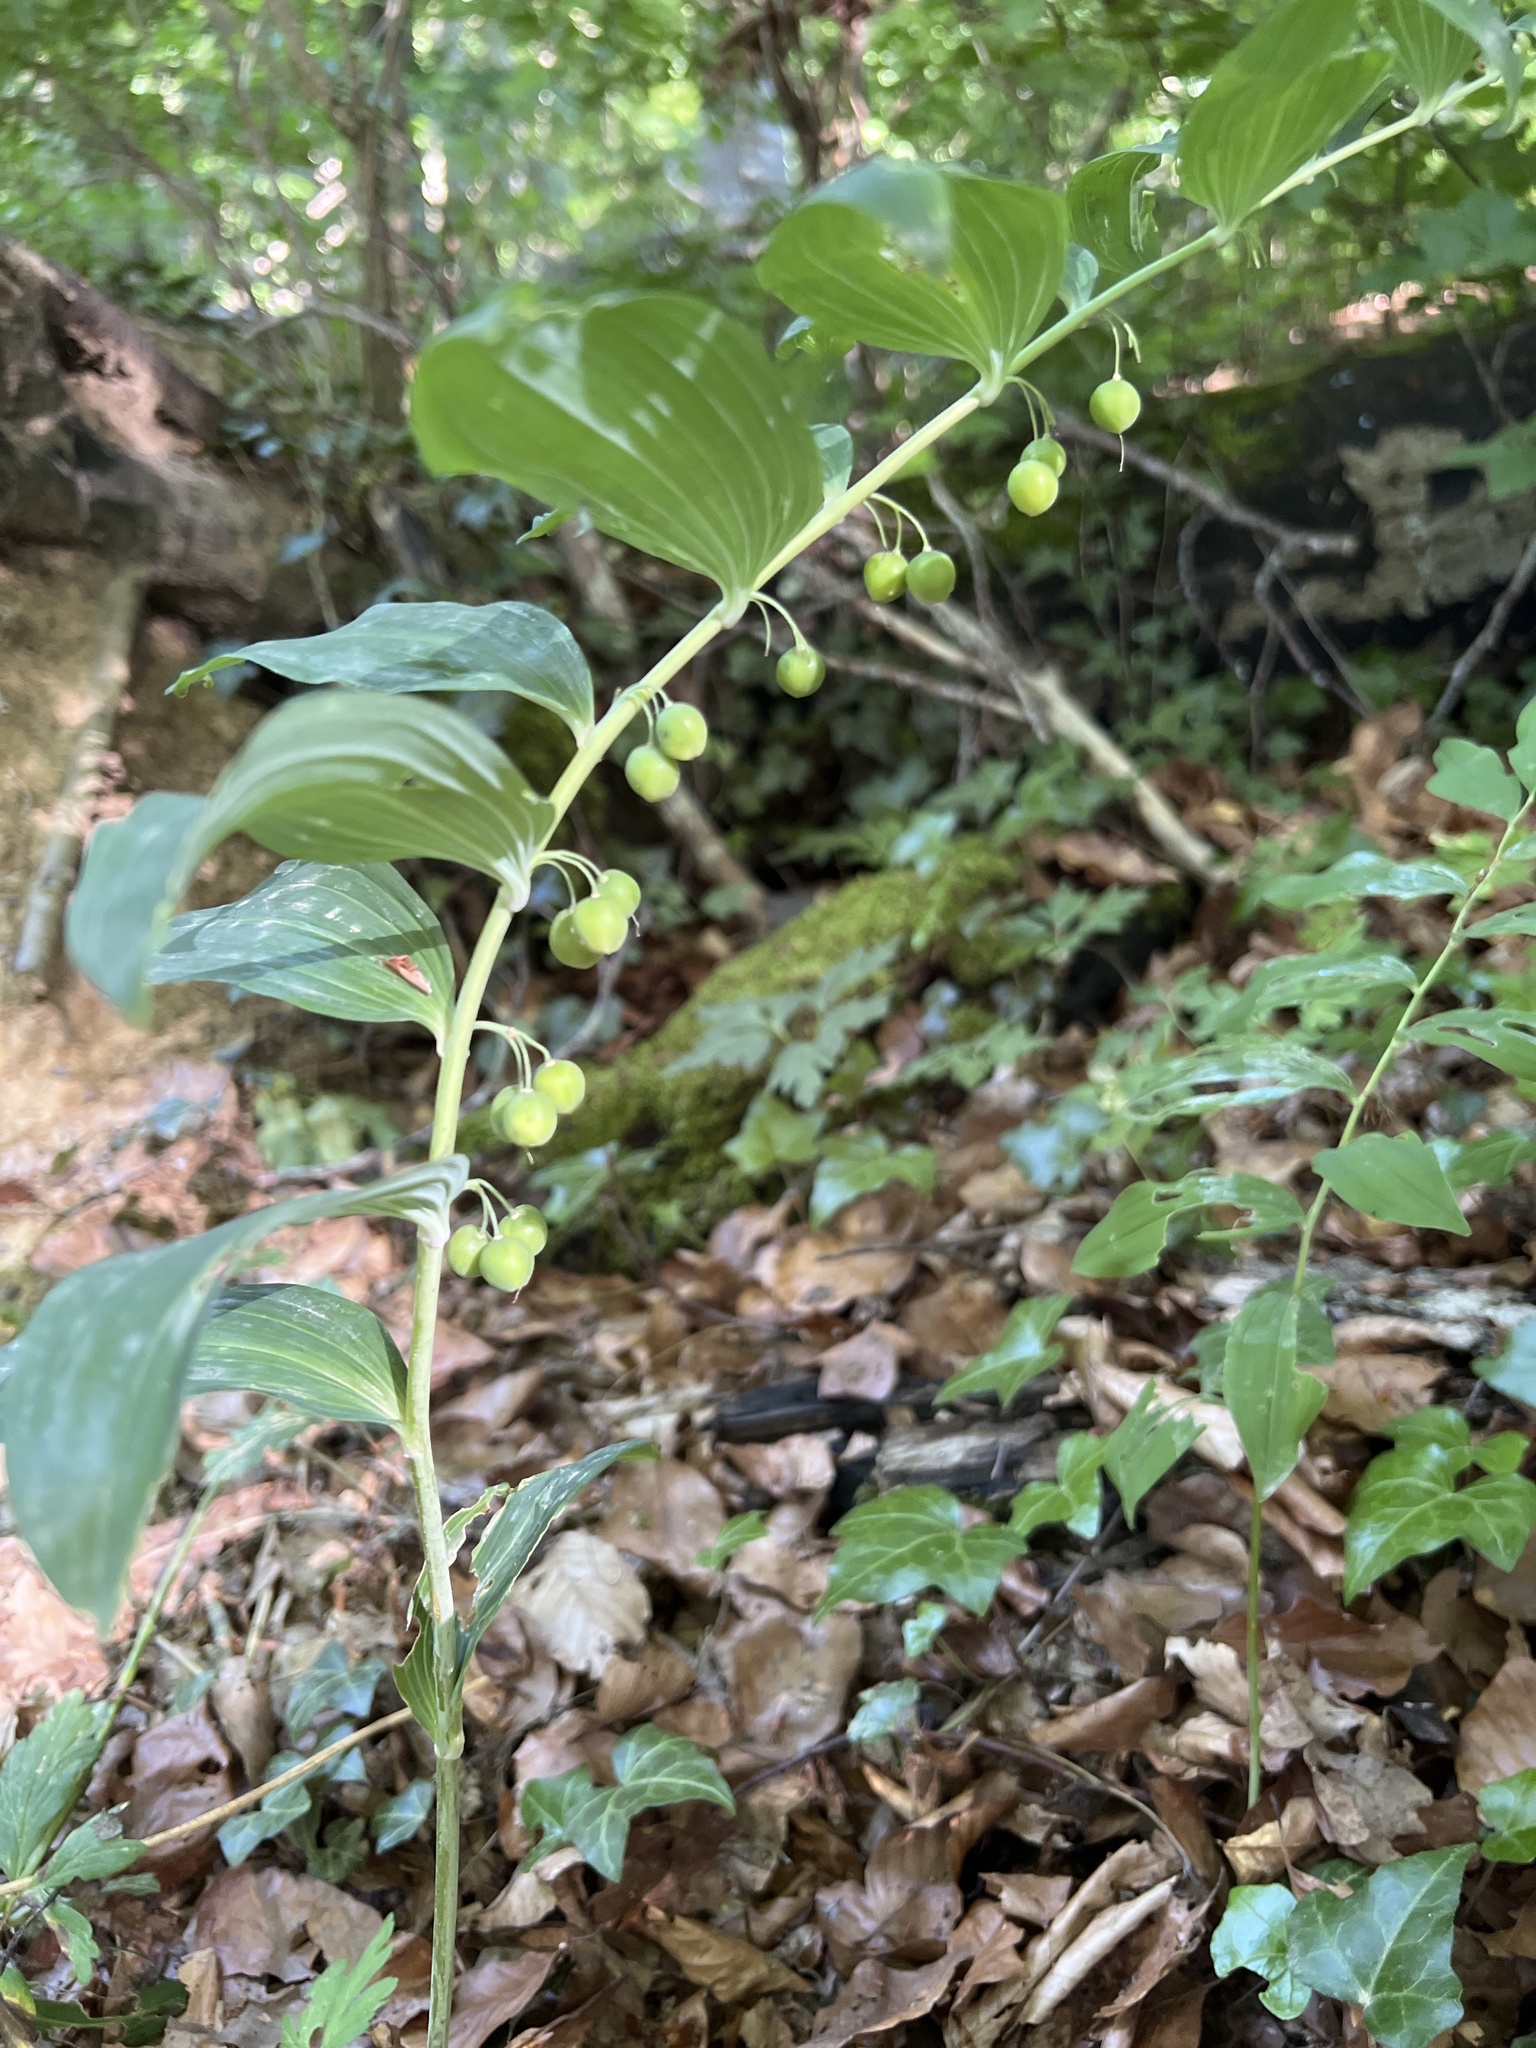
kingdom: Plantae
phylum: Tracheophyta
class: Liliopsida
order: Asparagales
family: Asparagaceae
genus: Polygonatum
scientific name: Polygonatum multiflorum
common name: Solomon's-seal
